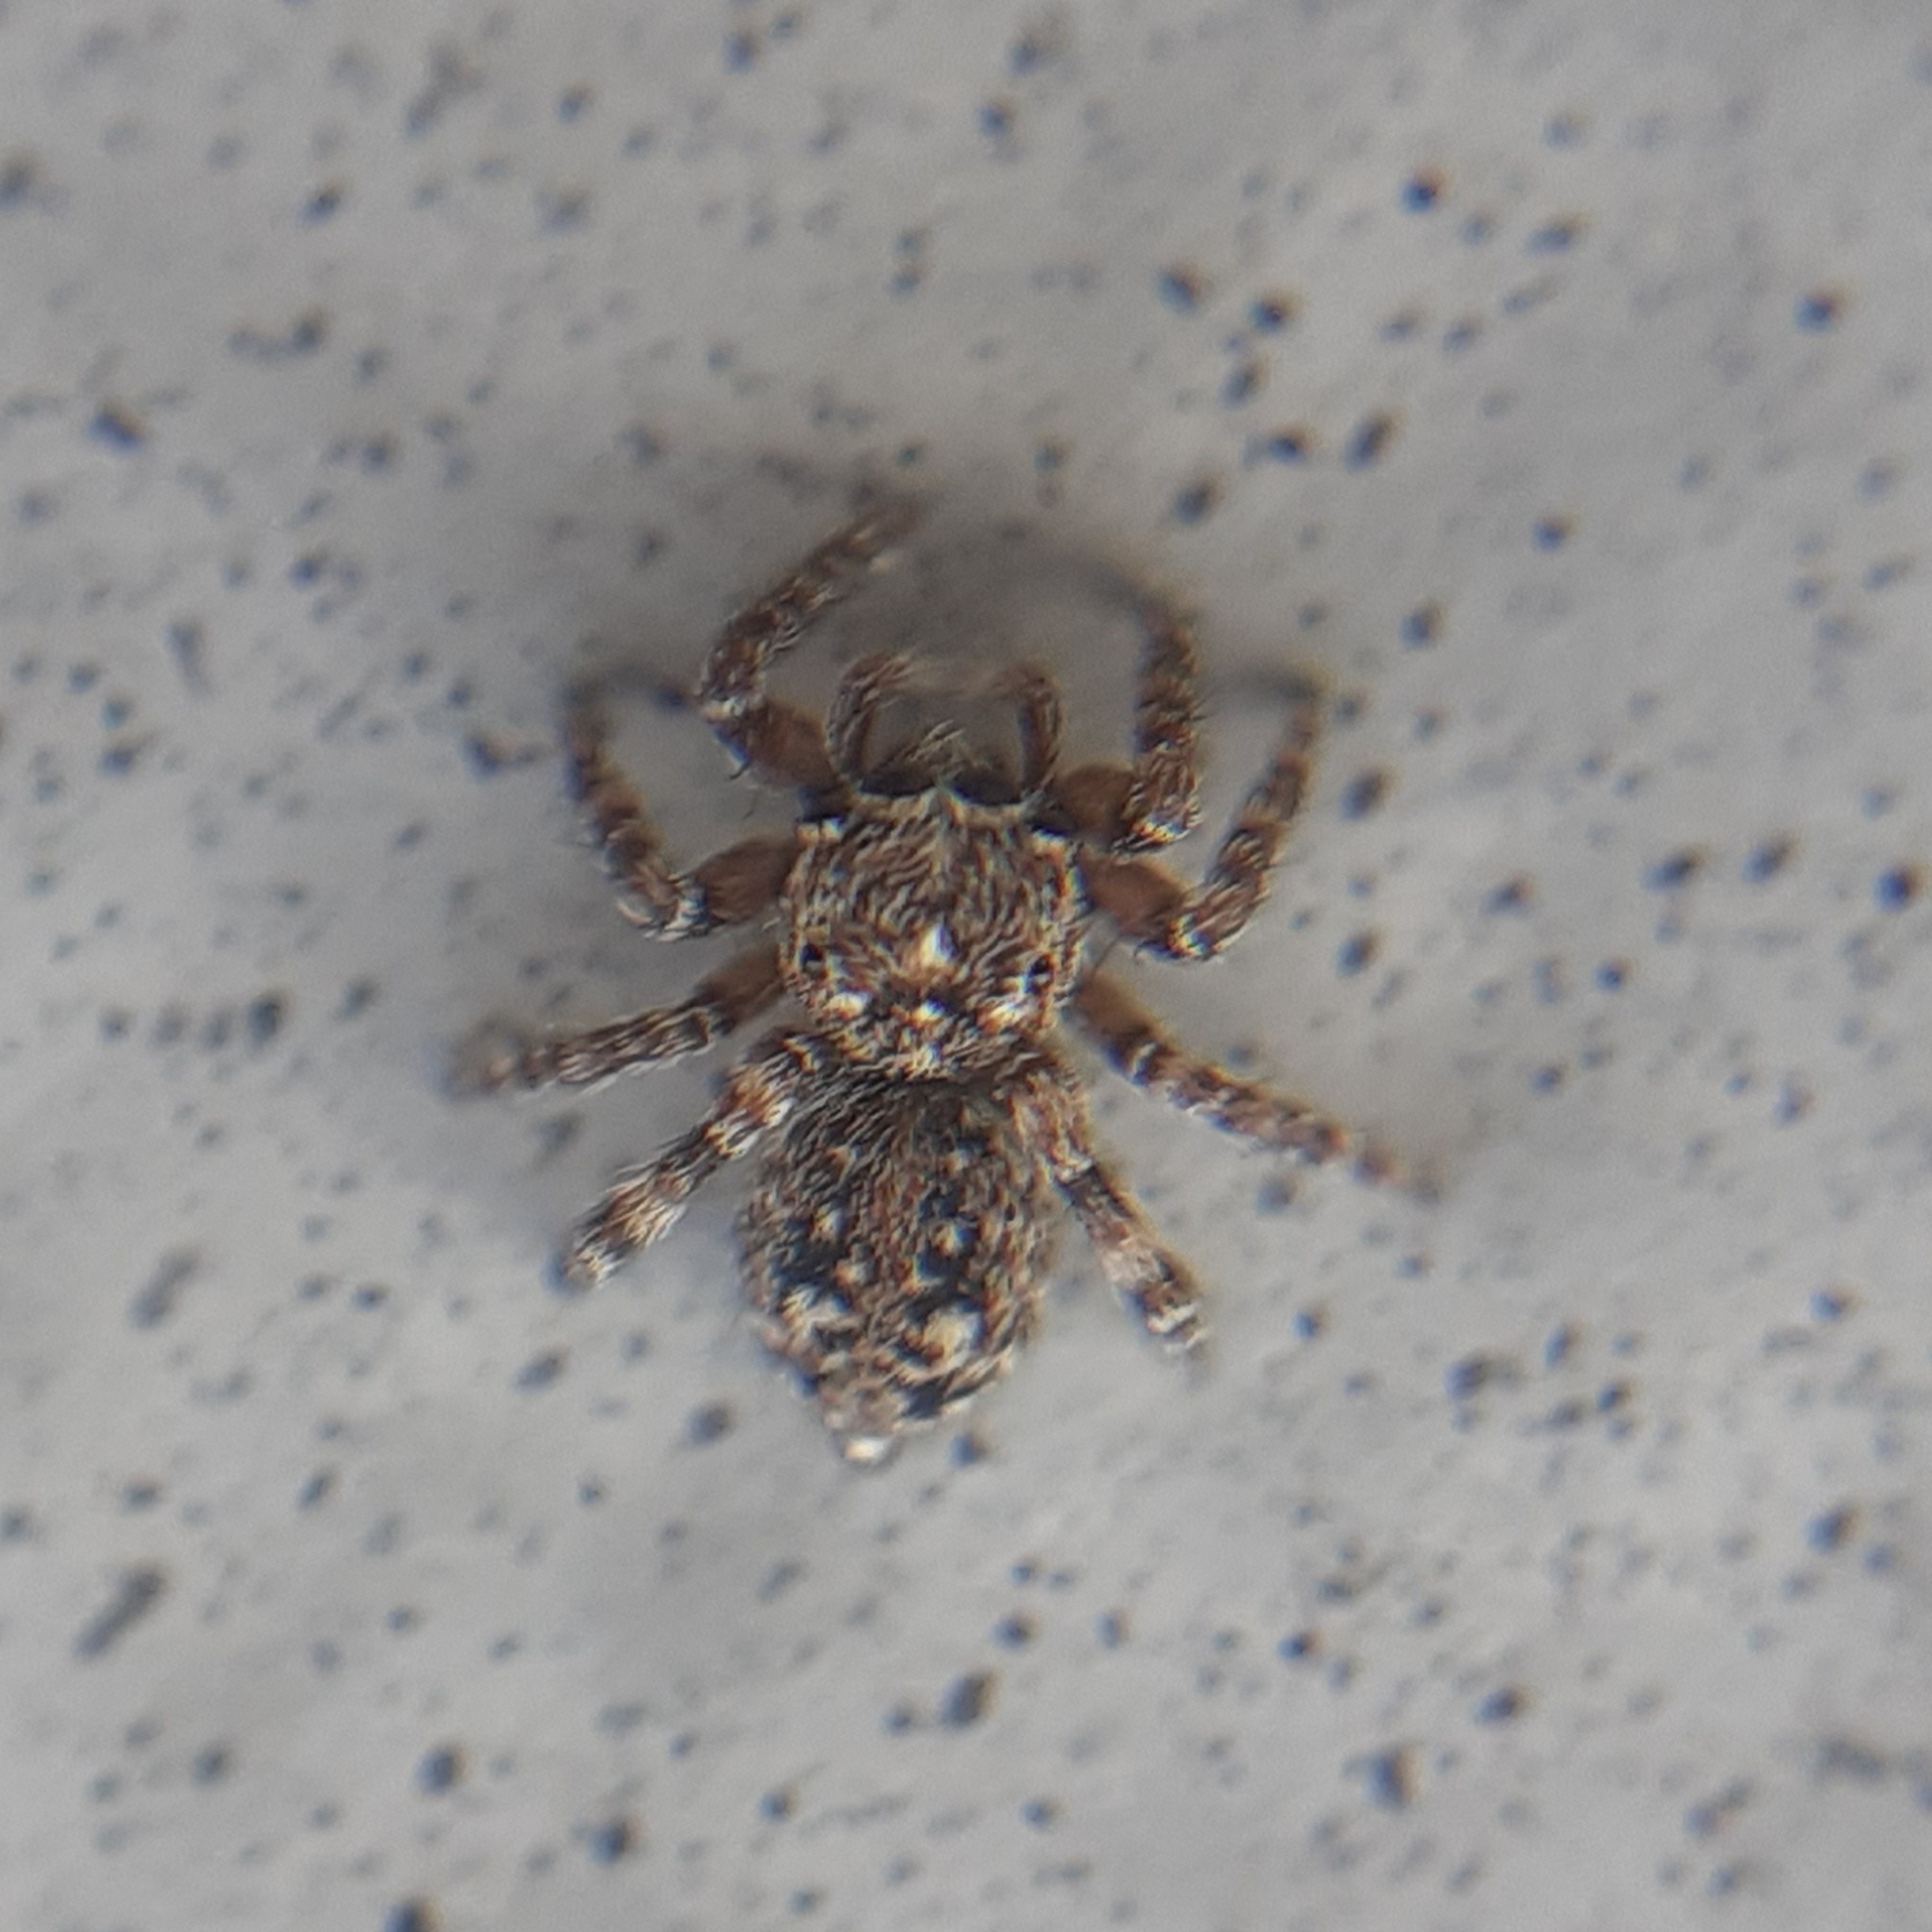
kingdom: Animalia
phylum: Arthropoda
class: Arachnida
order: Araneae
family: Salticidae
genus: Attulus
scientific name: Attulus pubescens
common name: Jumping spider
